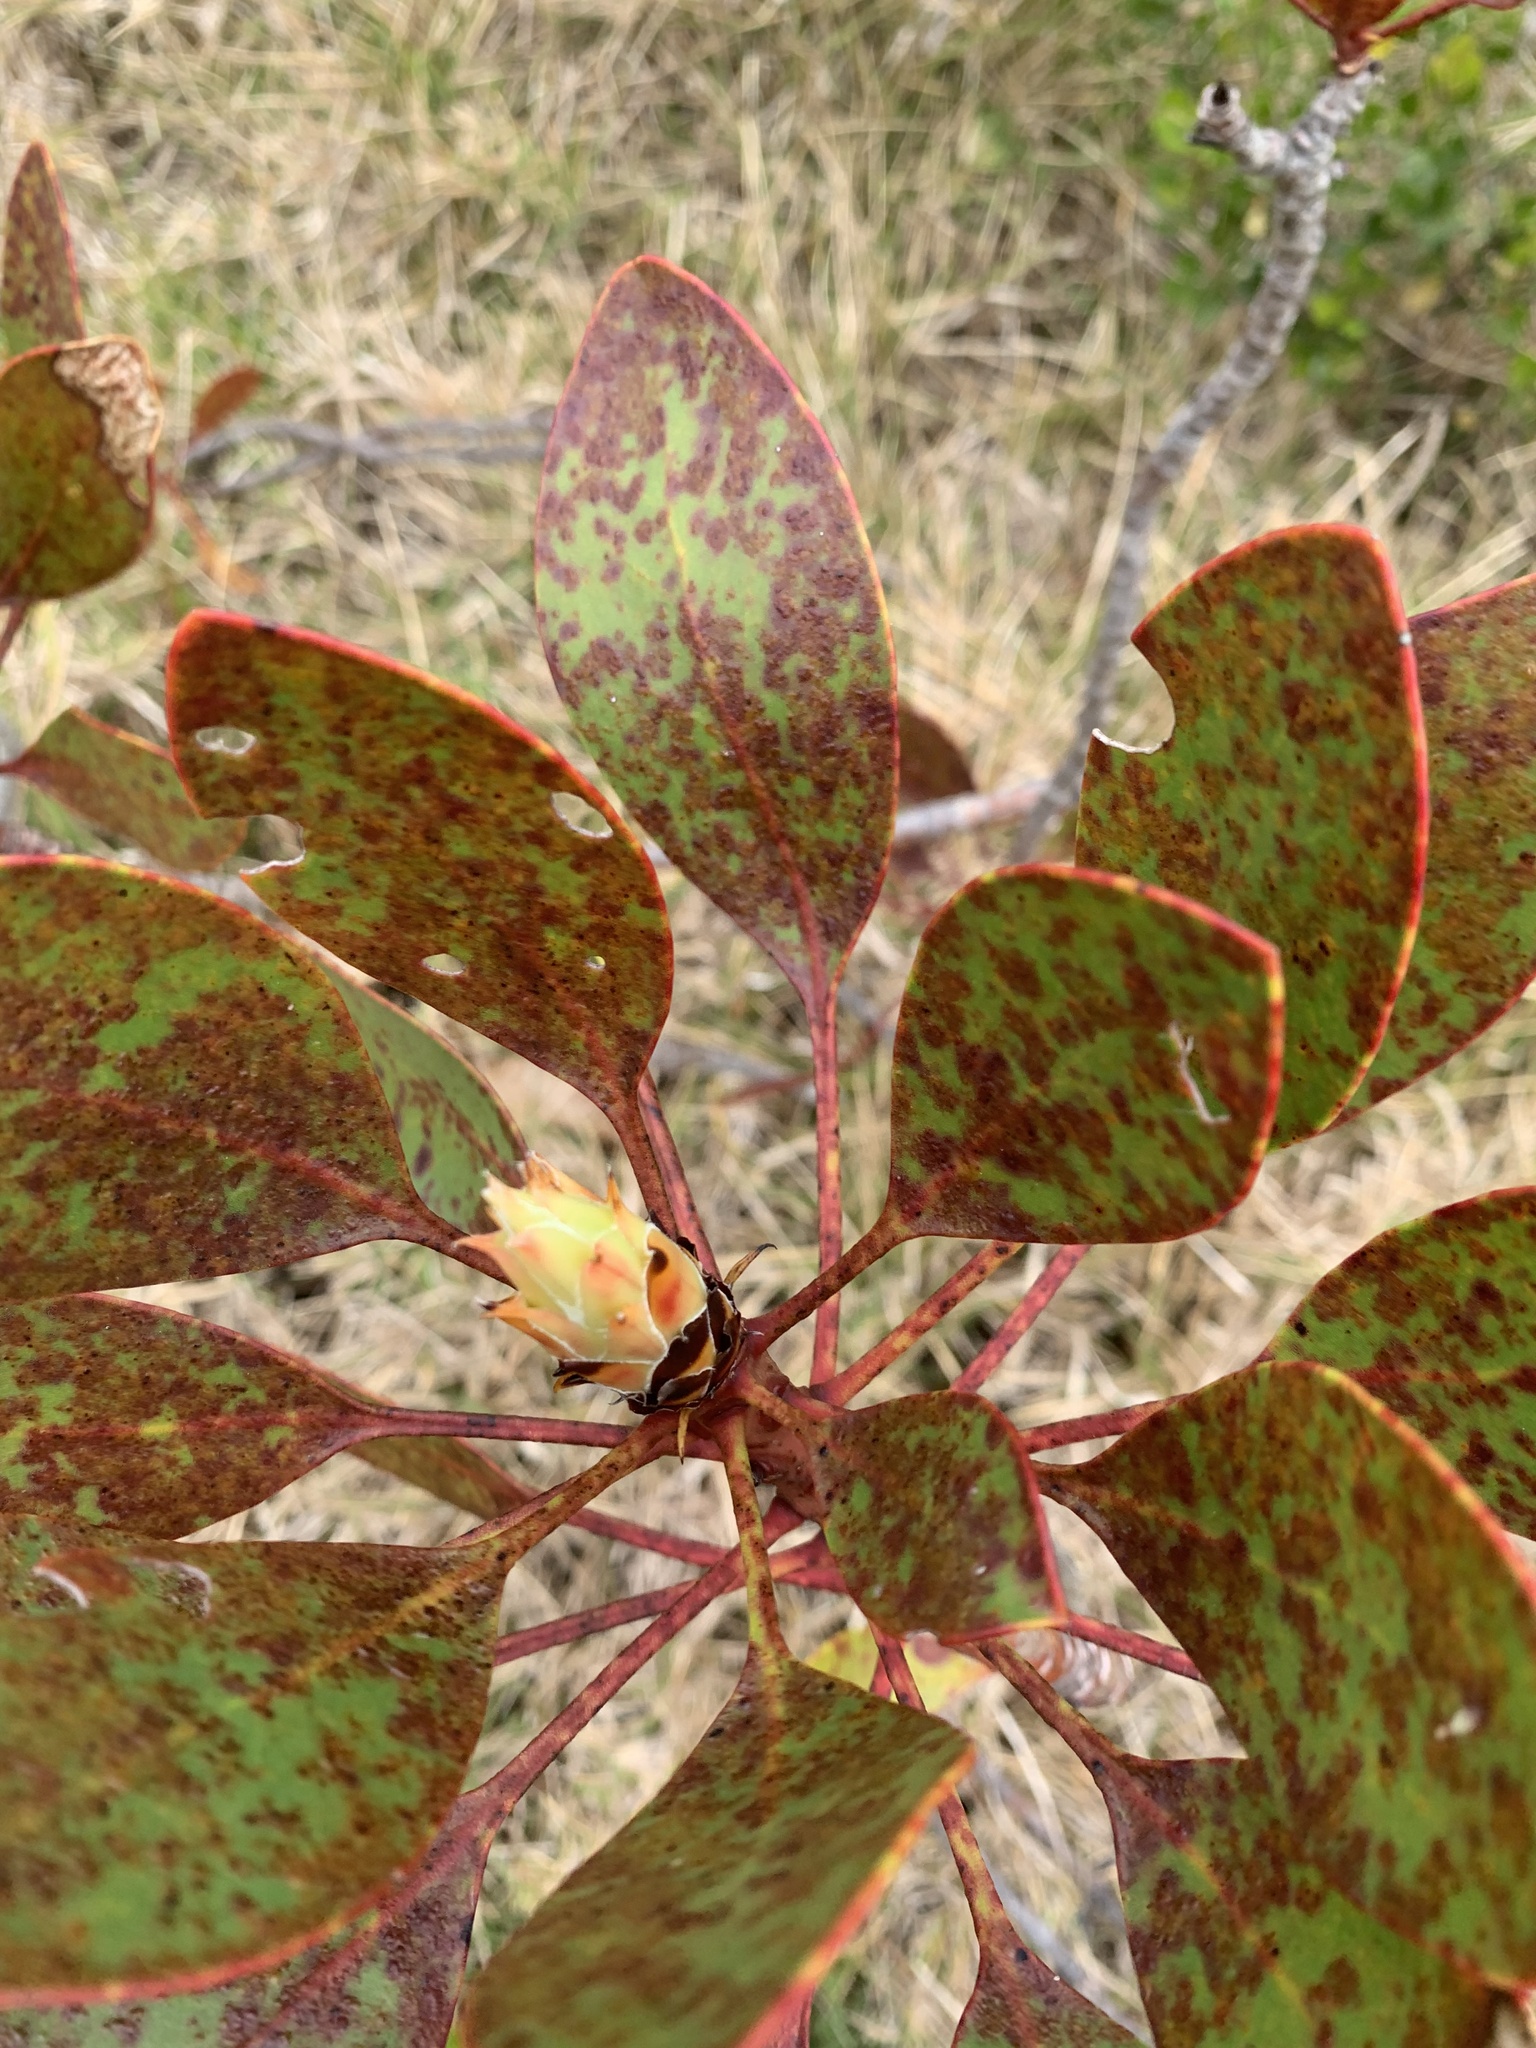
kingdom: Plantae
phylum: Tracheophyta
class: Magnoliopsida
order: Proteales
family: Proteaceae
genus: Protea
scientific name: Protea cynaroides
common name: King protea
